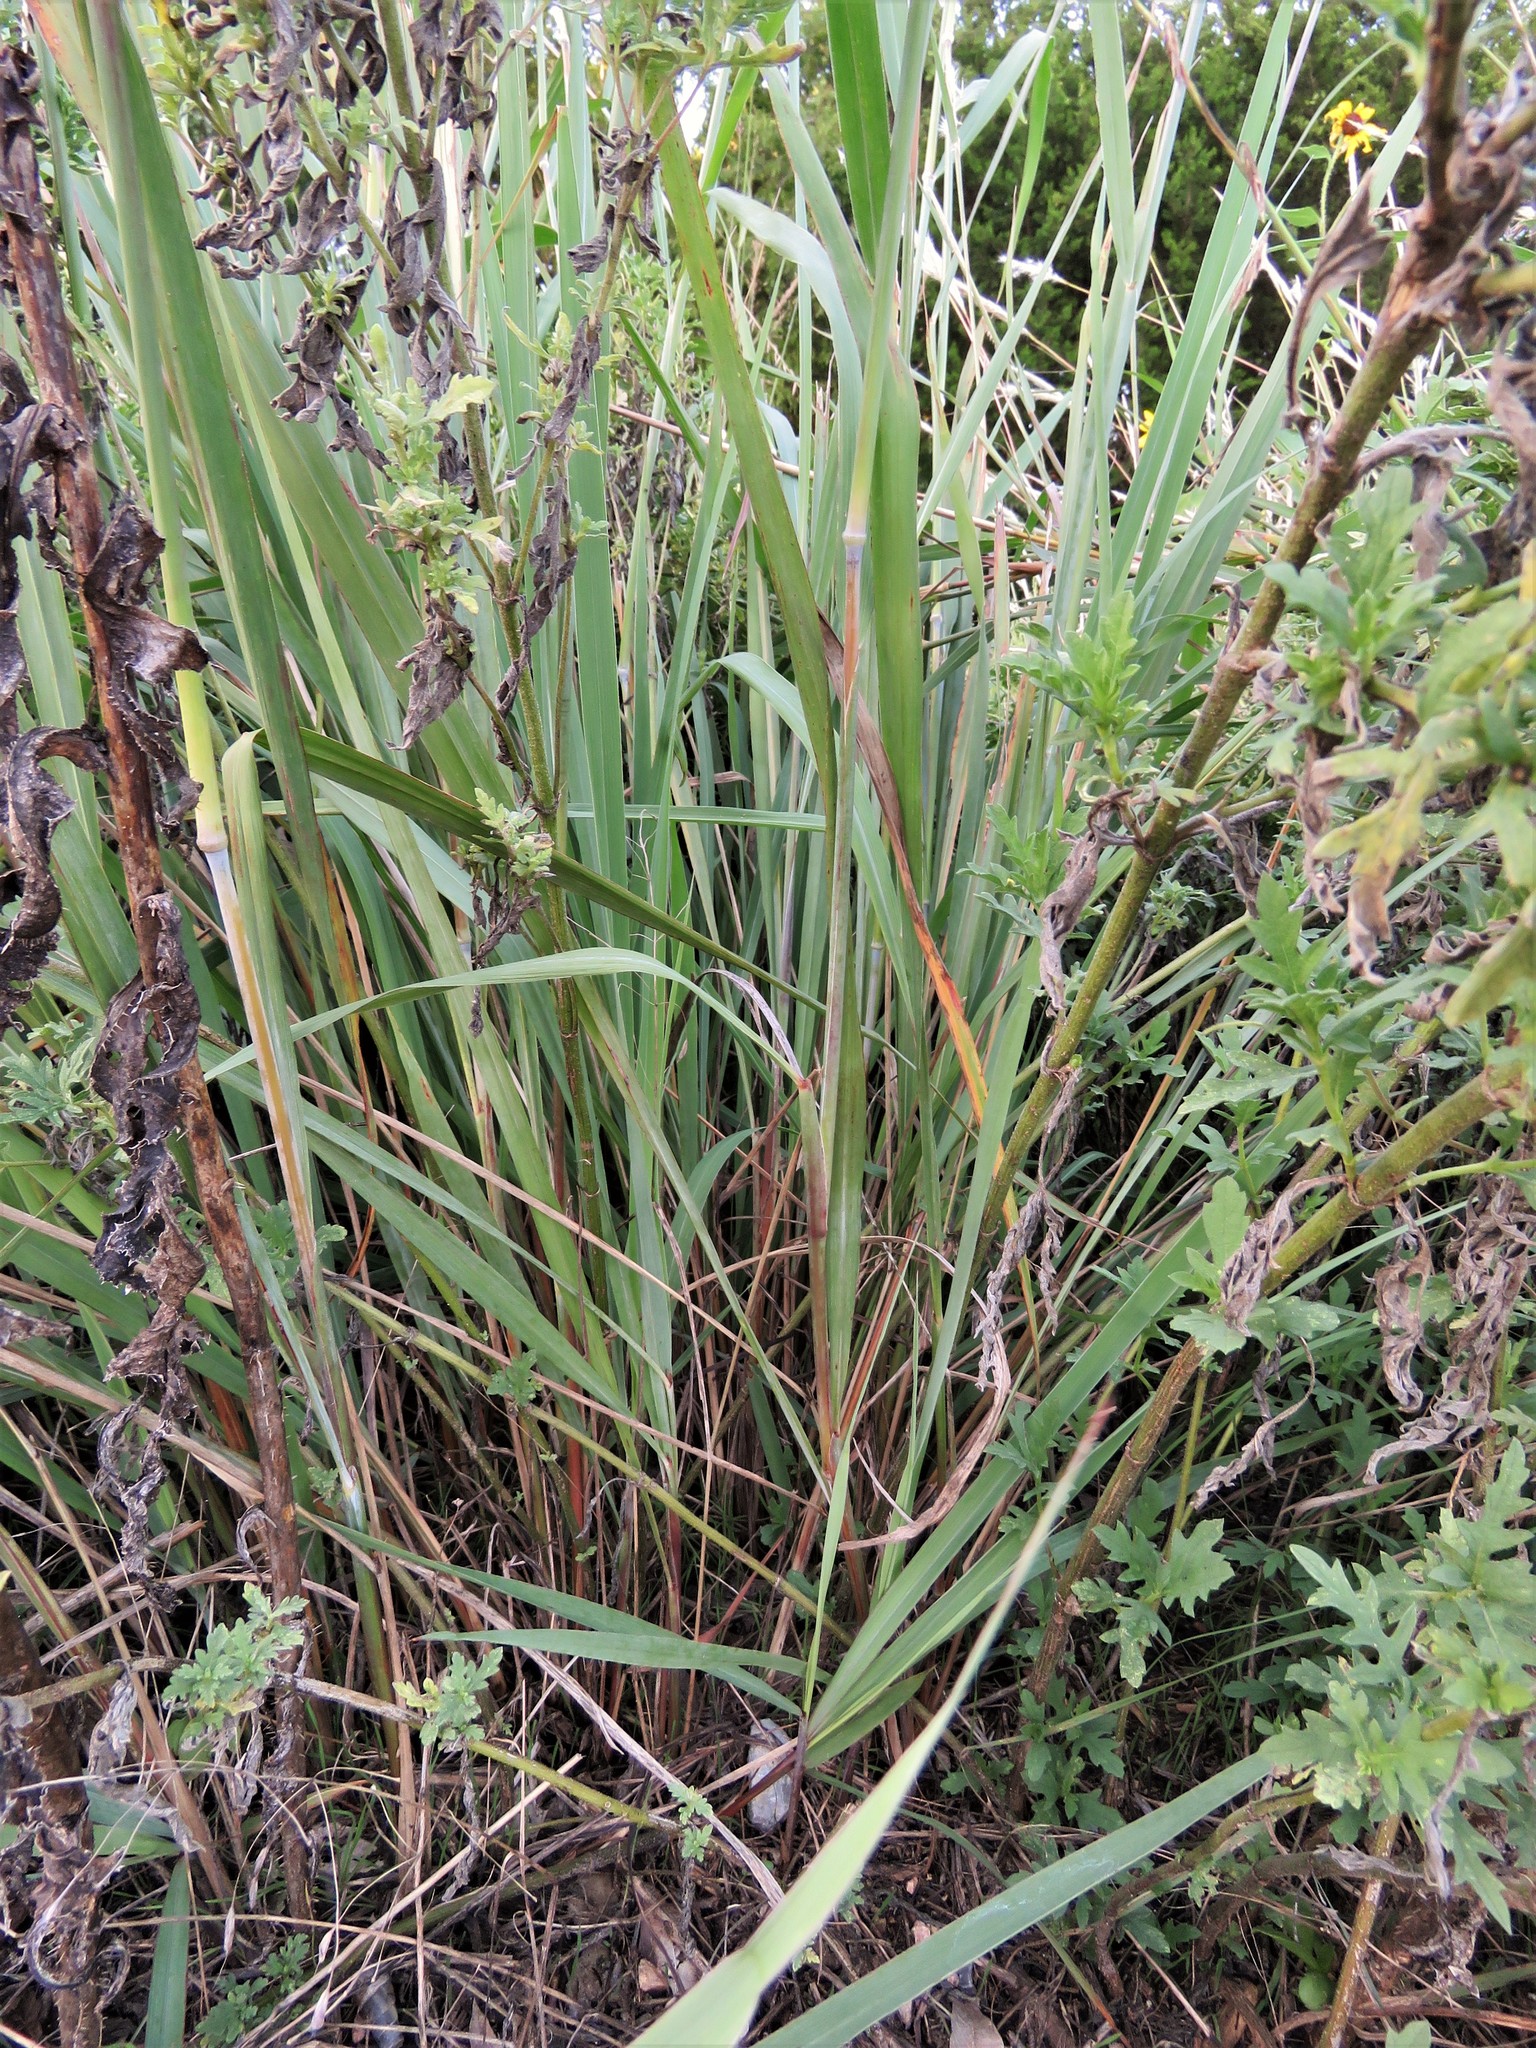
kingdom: Plantae
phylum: Tracheophyta
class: Liliopsida
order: Poales
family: Poaceae
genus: Sorghastrum
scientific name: Sorghastrum nutans
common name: Indian grass
